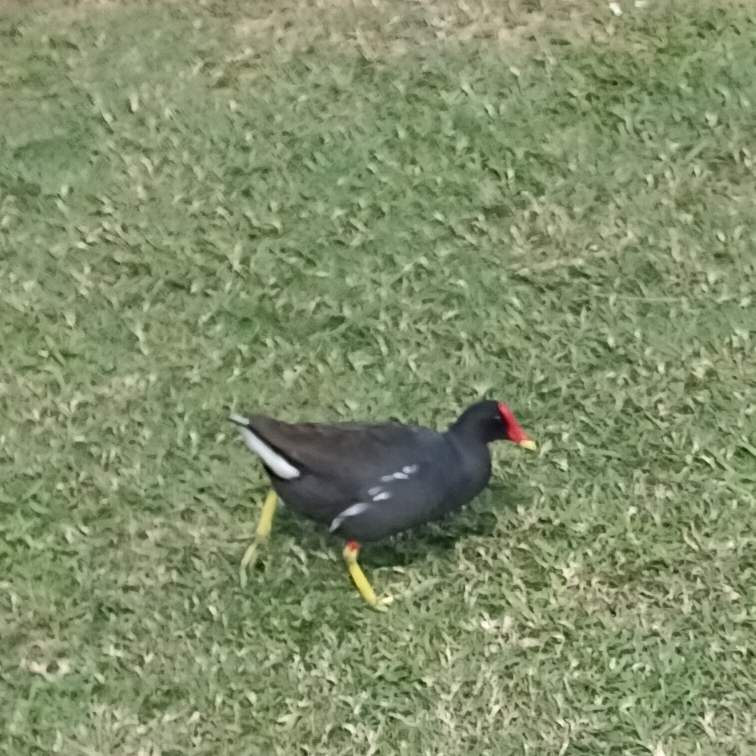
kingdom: Animalia
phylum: Chordata
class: Aves
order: Gruiformes
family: Rallidae
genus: Gallinula
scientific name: Gallinula chloropus
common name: Common moorhen
